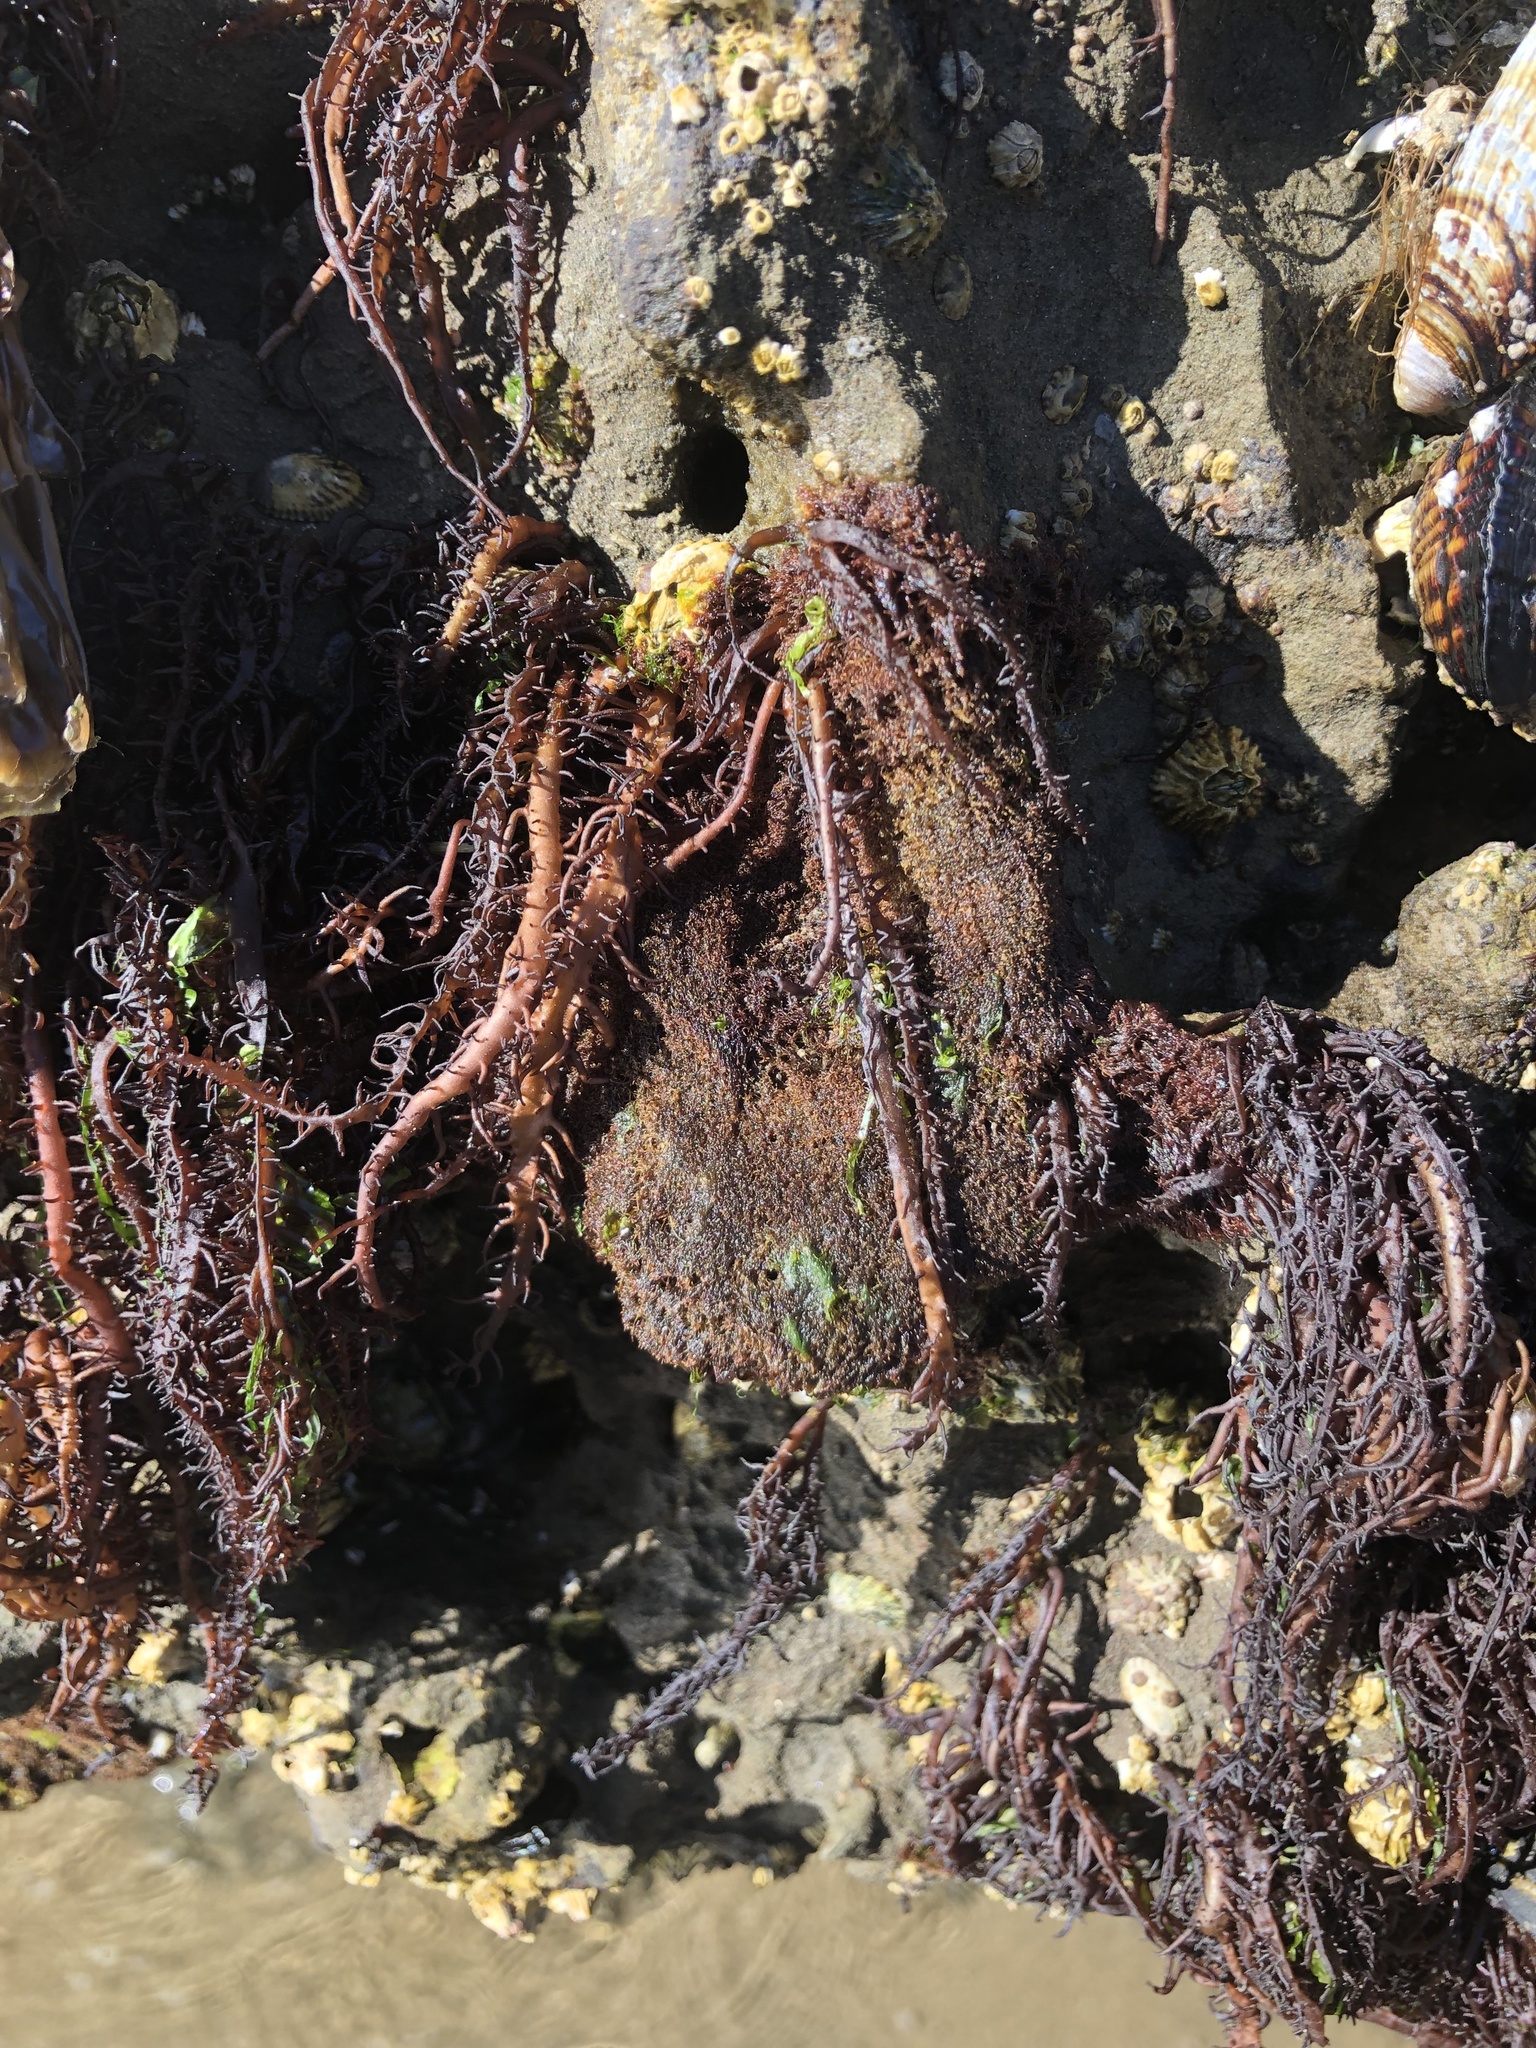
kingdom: Plantae
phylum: Rhodophyta
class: Florideophyceae
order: Nemaliales
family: Liagoraceae
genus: Cumagloia
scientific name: Cumagloia andersonii
